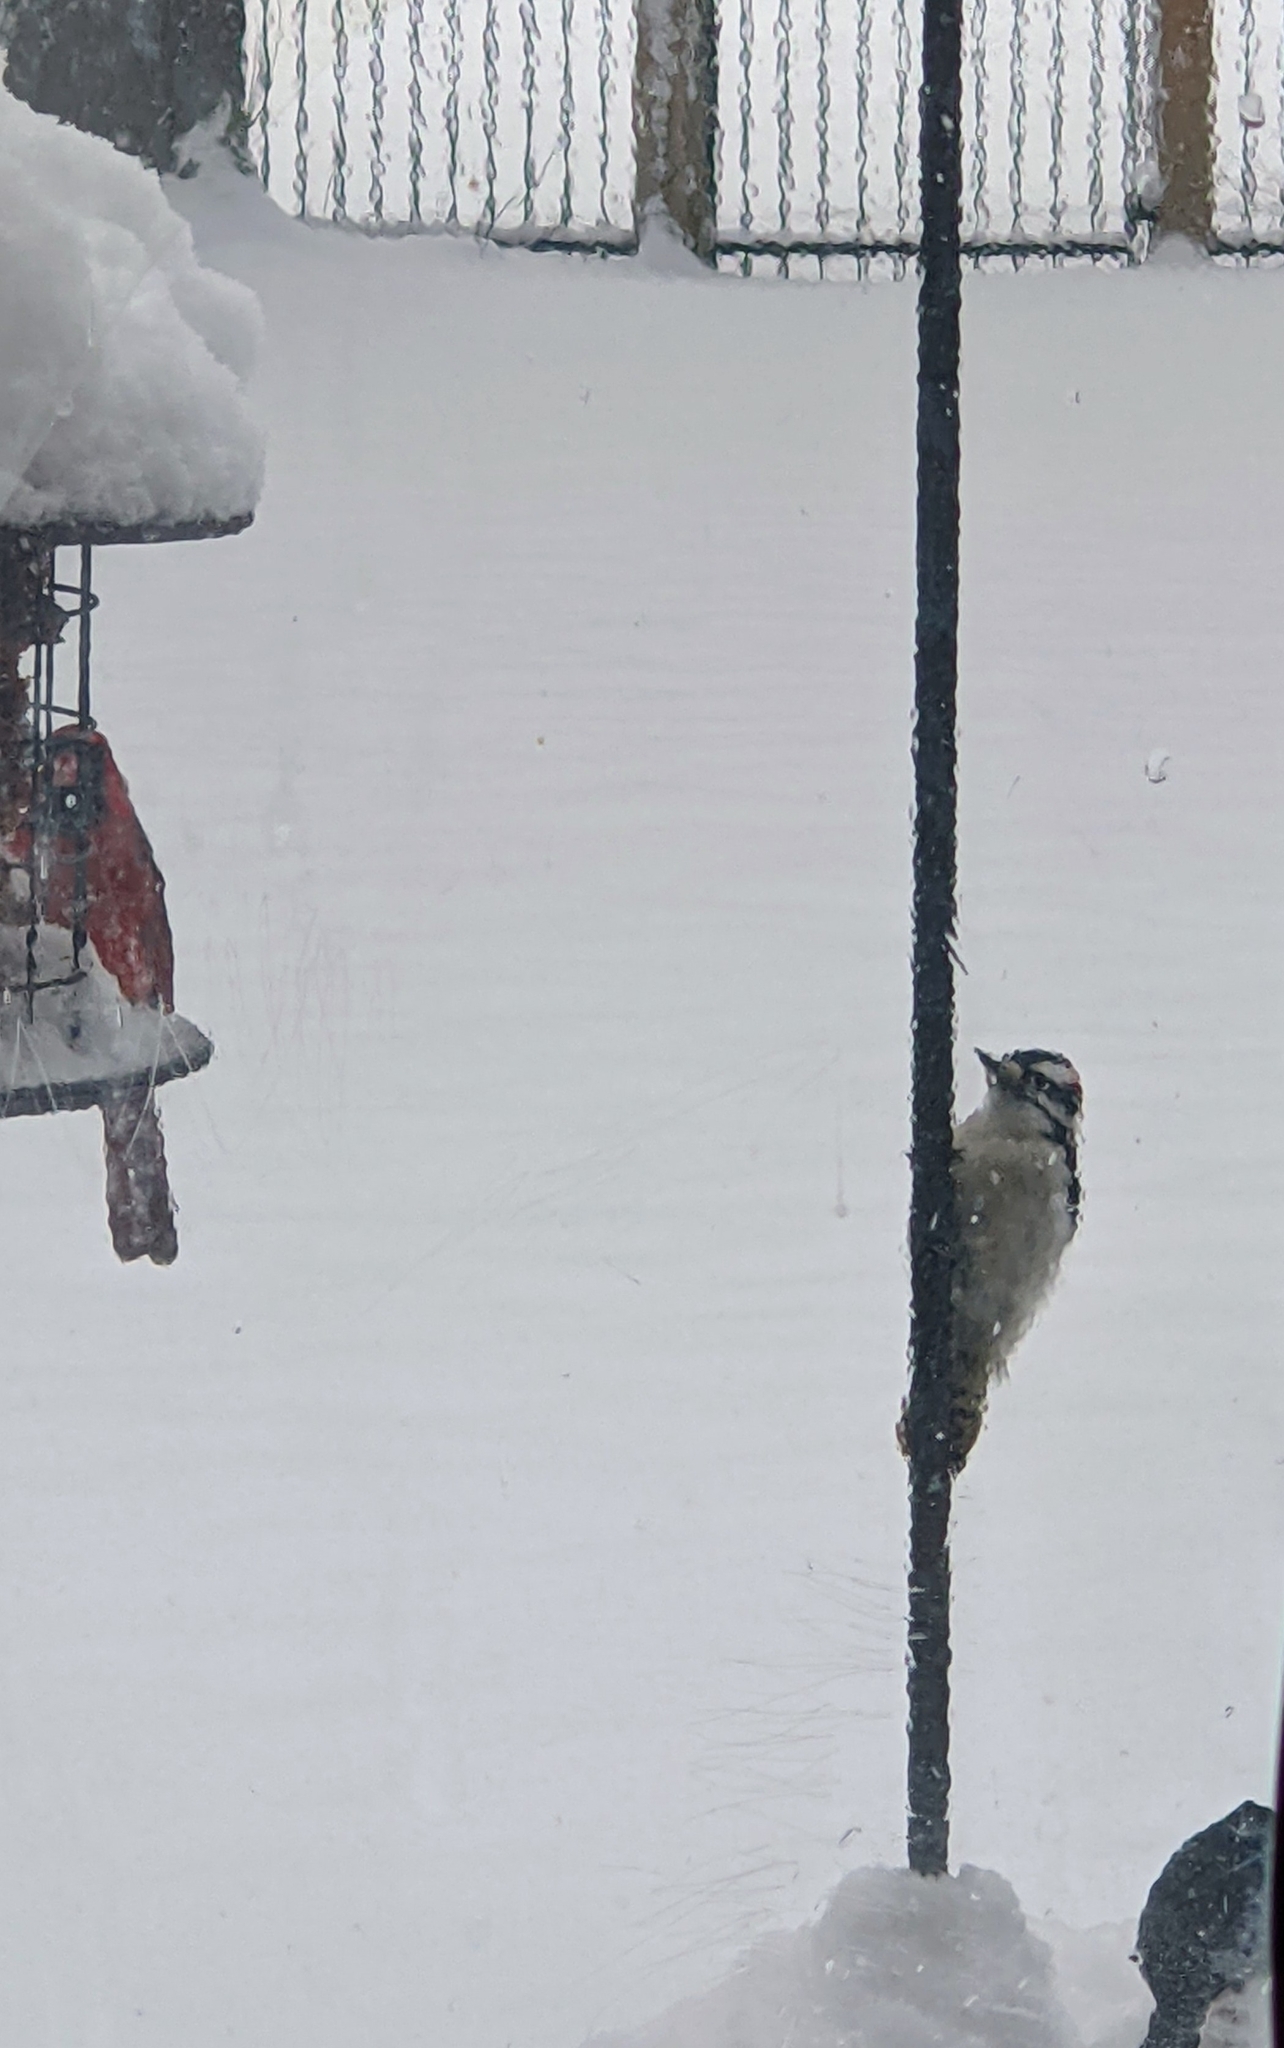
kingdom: Animalia
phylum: Chordata
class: Aves
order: Piciformes
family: Picidae
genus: Dryobates
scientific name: Dryobates pubescens
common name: Downy woodpecker
